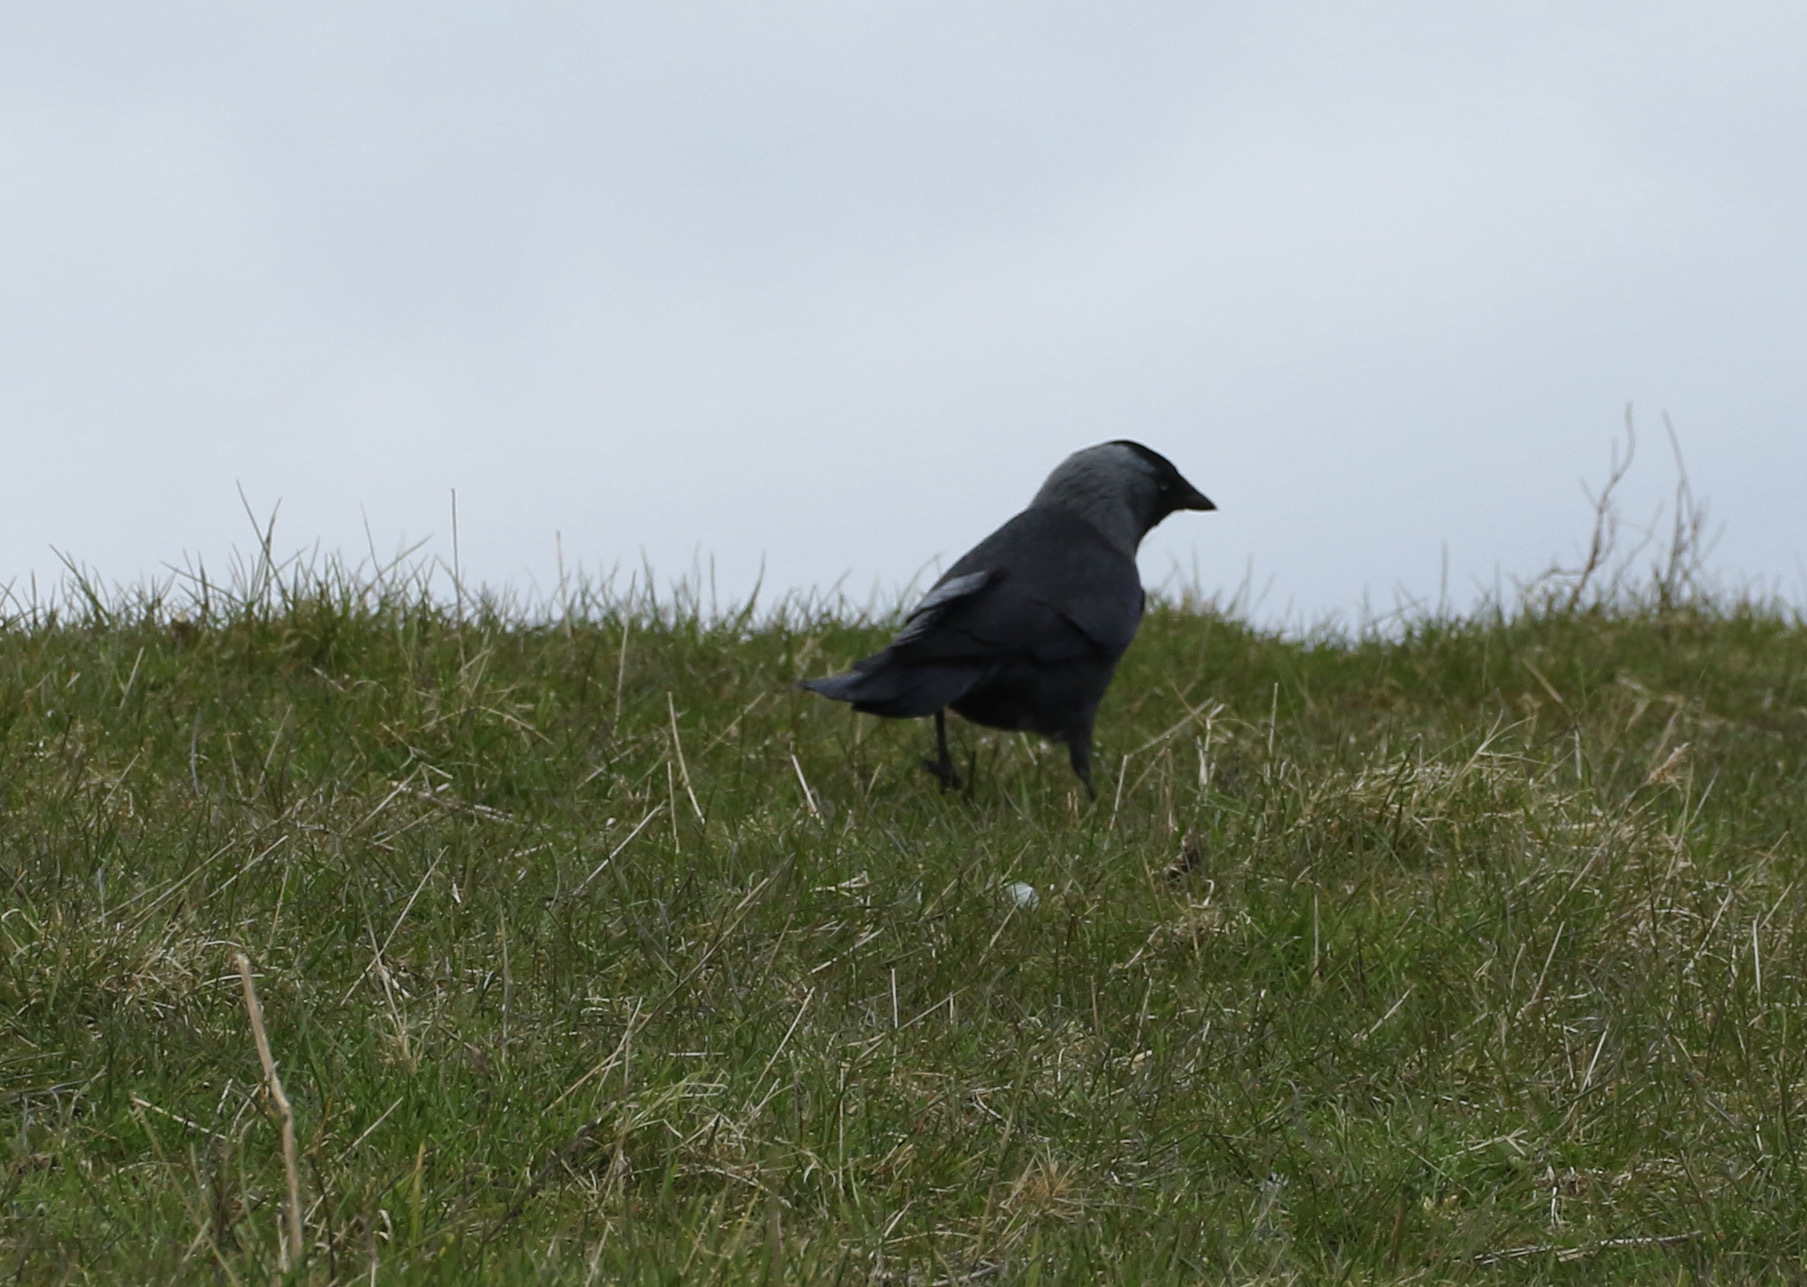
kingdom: Animalia
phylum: Chordata
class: Aves
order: Passeriformes
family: Corvidae
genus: Coloeus
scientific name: Coloeus monedula
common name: Western jackdaw
